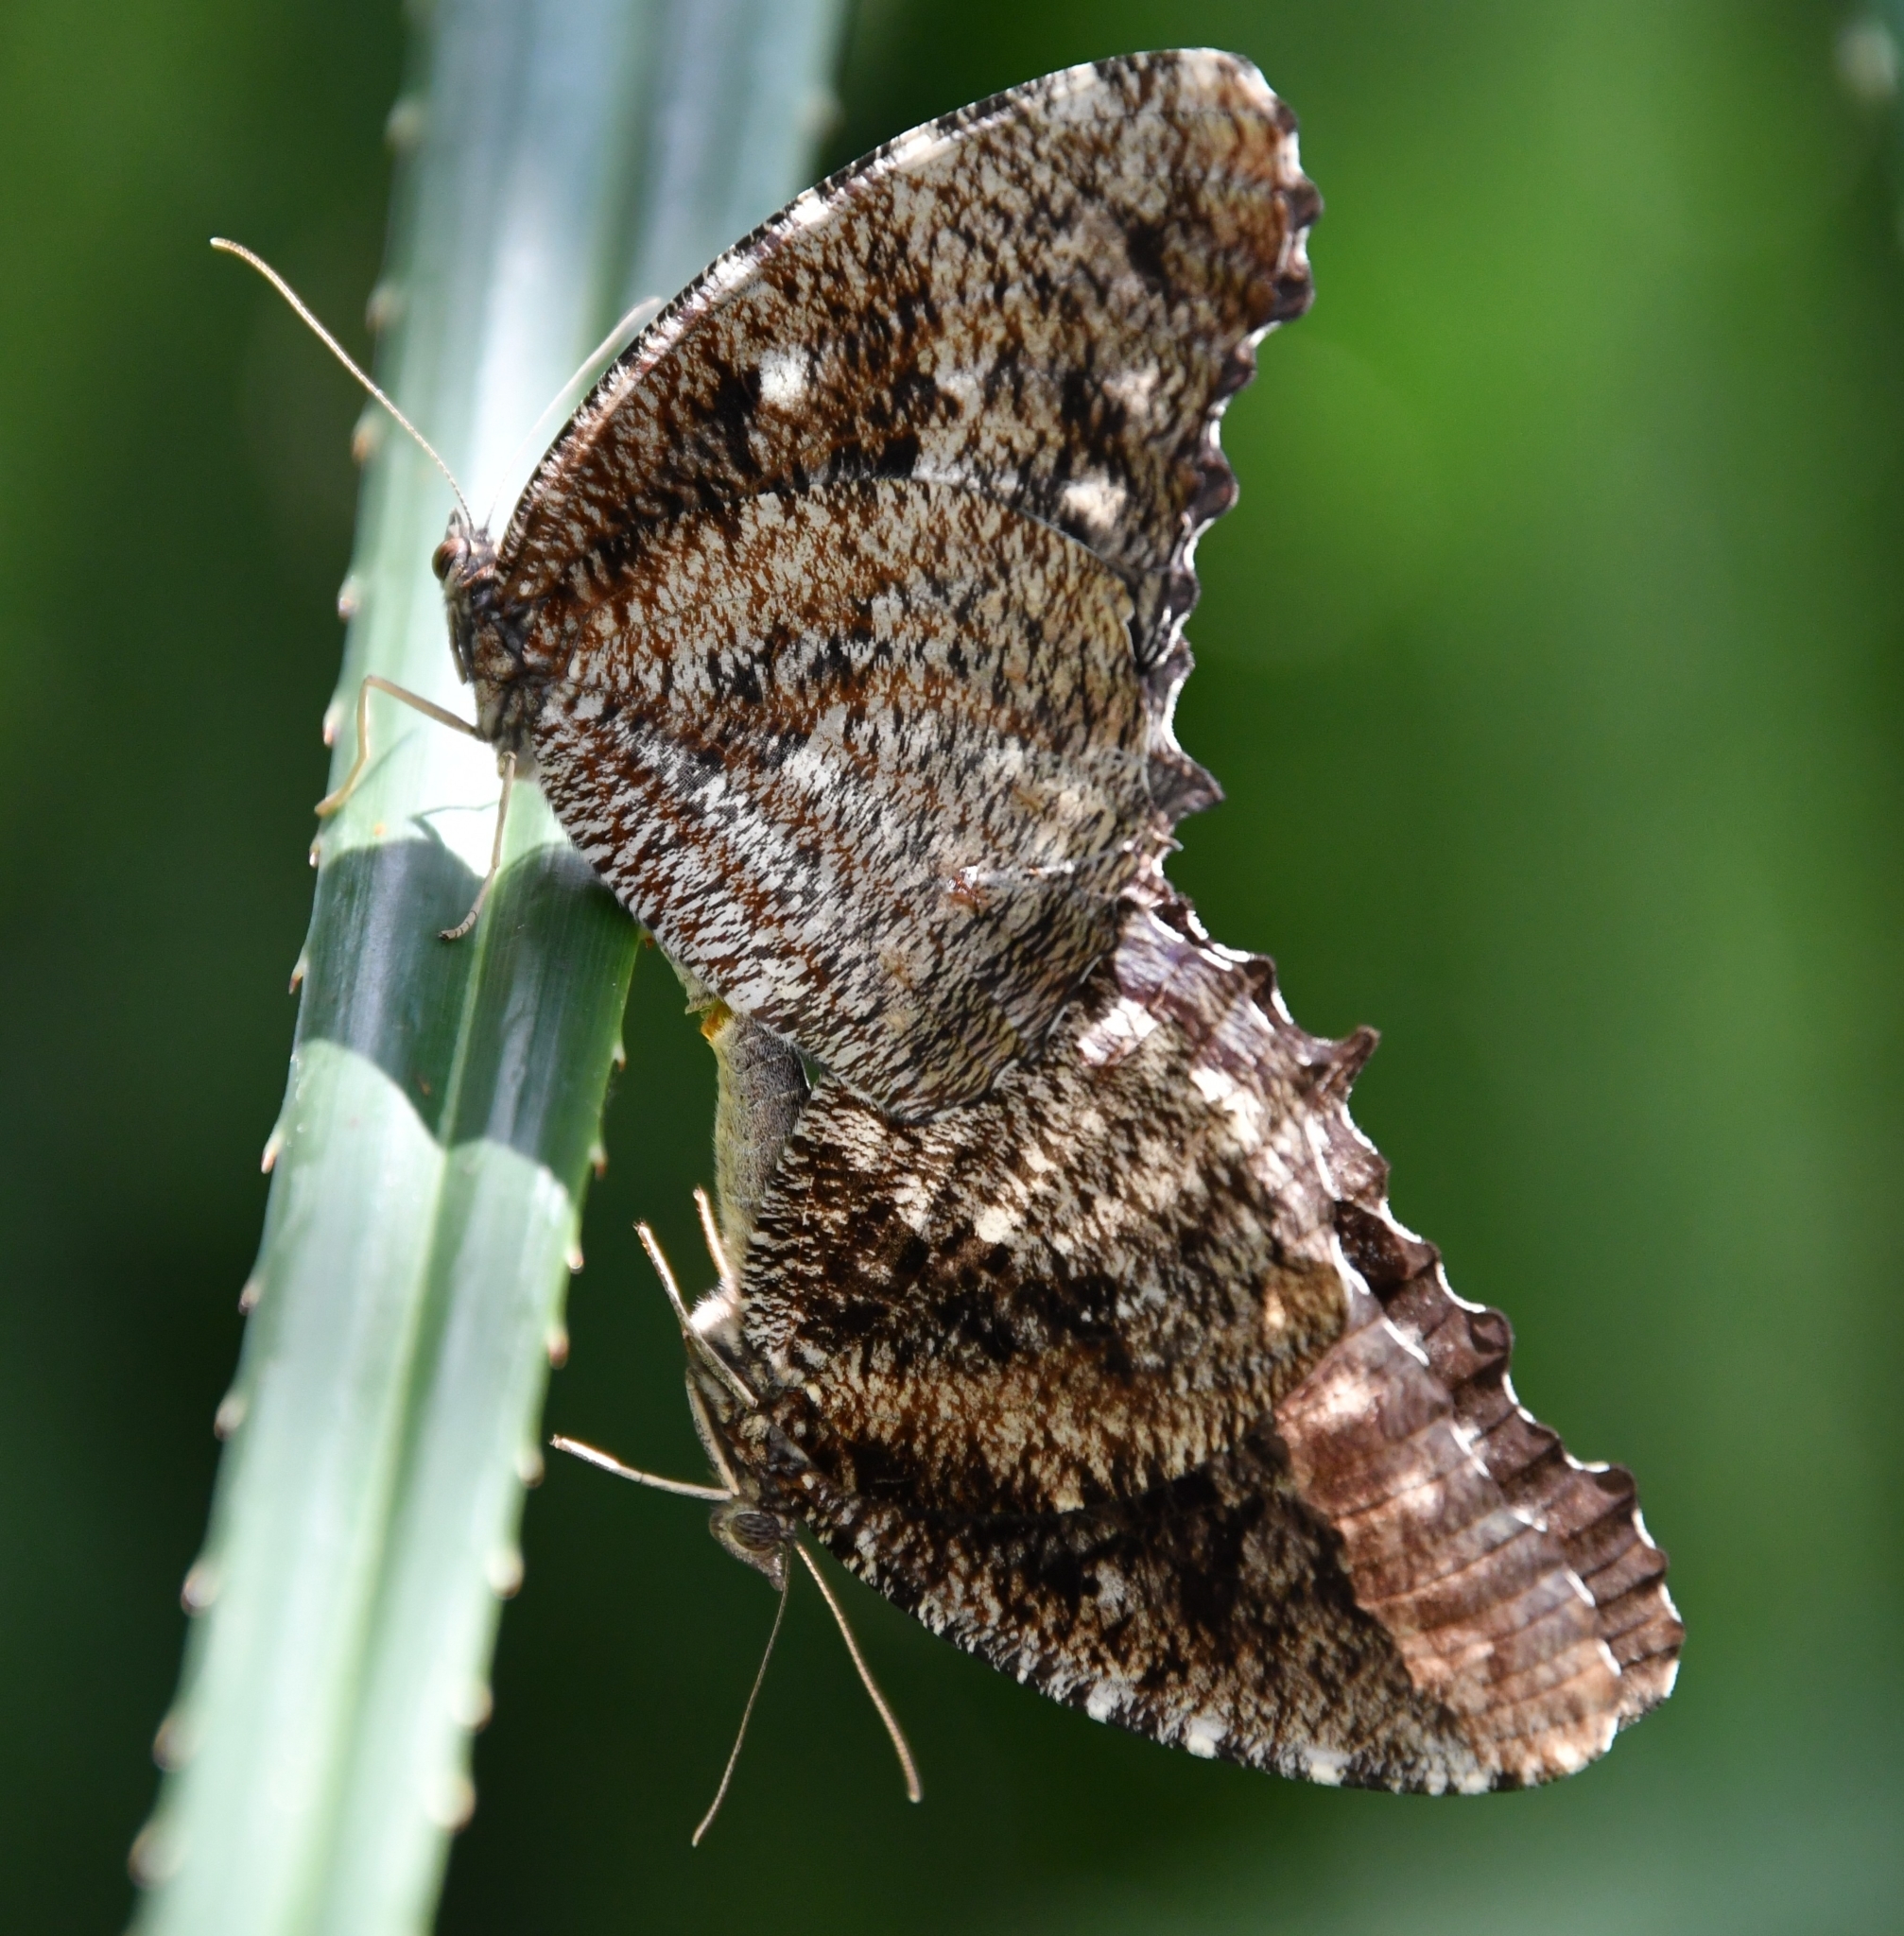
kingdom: Animalia
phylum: Arthropoda
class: Insecta
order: Lepidoptera
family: Nymphalidae
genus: Elymnias
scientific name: Elymnias nesaea
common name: Tiger palmfly
